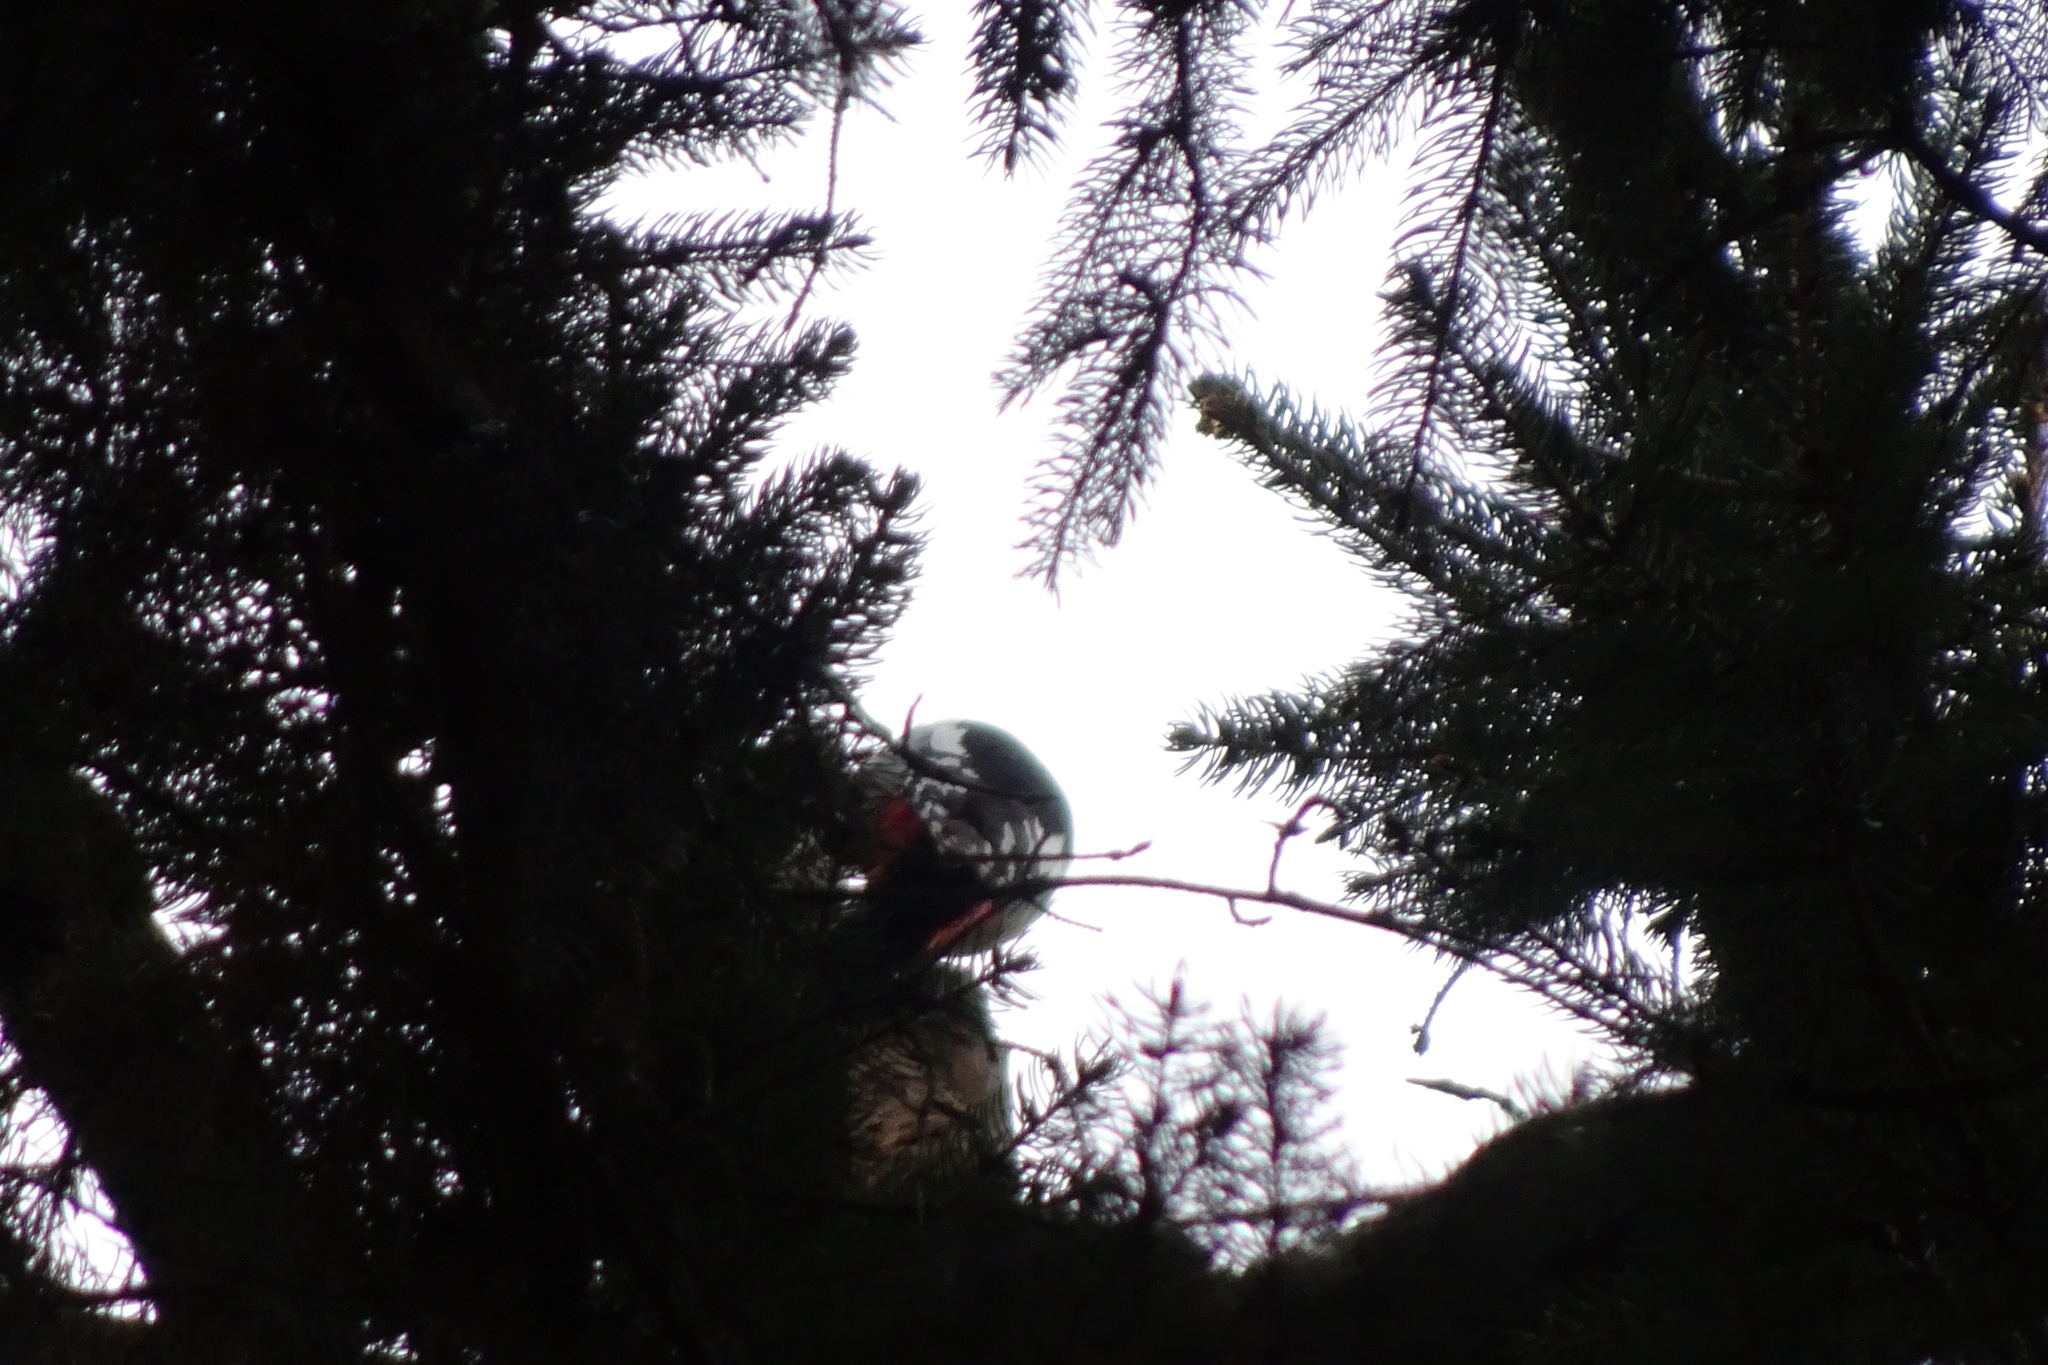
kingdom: Animalia
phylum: Chordata
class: Aves
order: Piciformes
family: Picidae
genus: Dendrocopos
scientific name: Dendrocopos major
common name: Great spotted woodpecker
